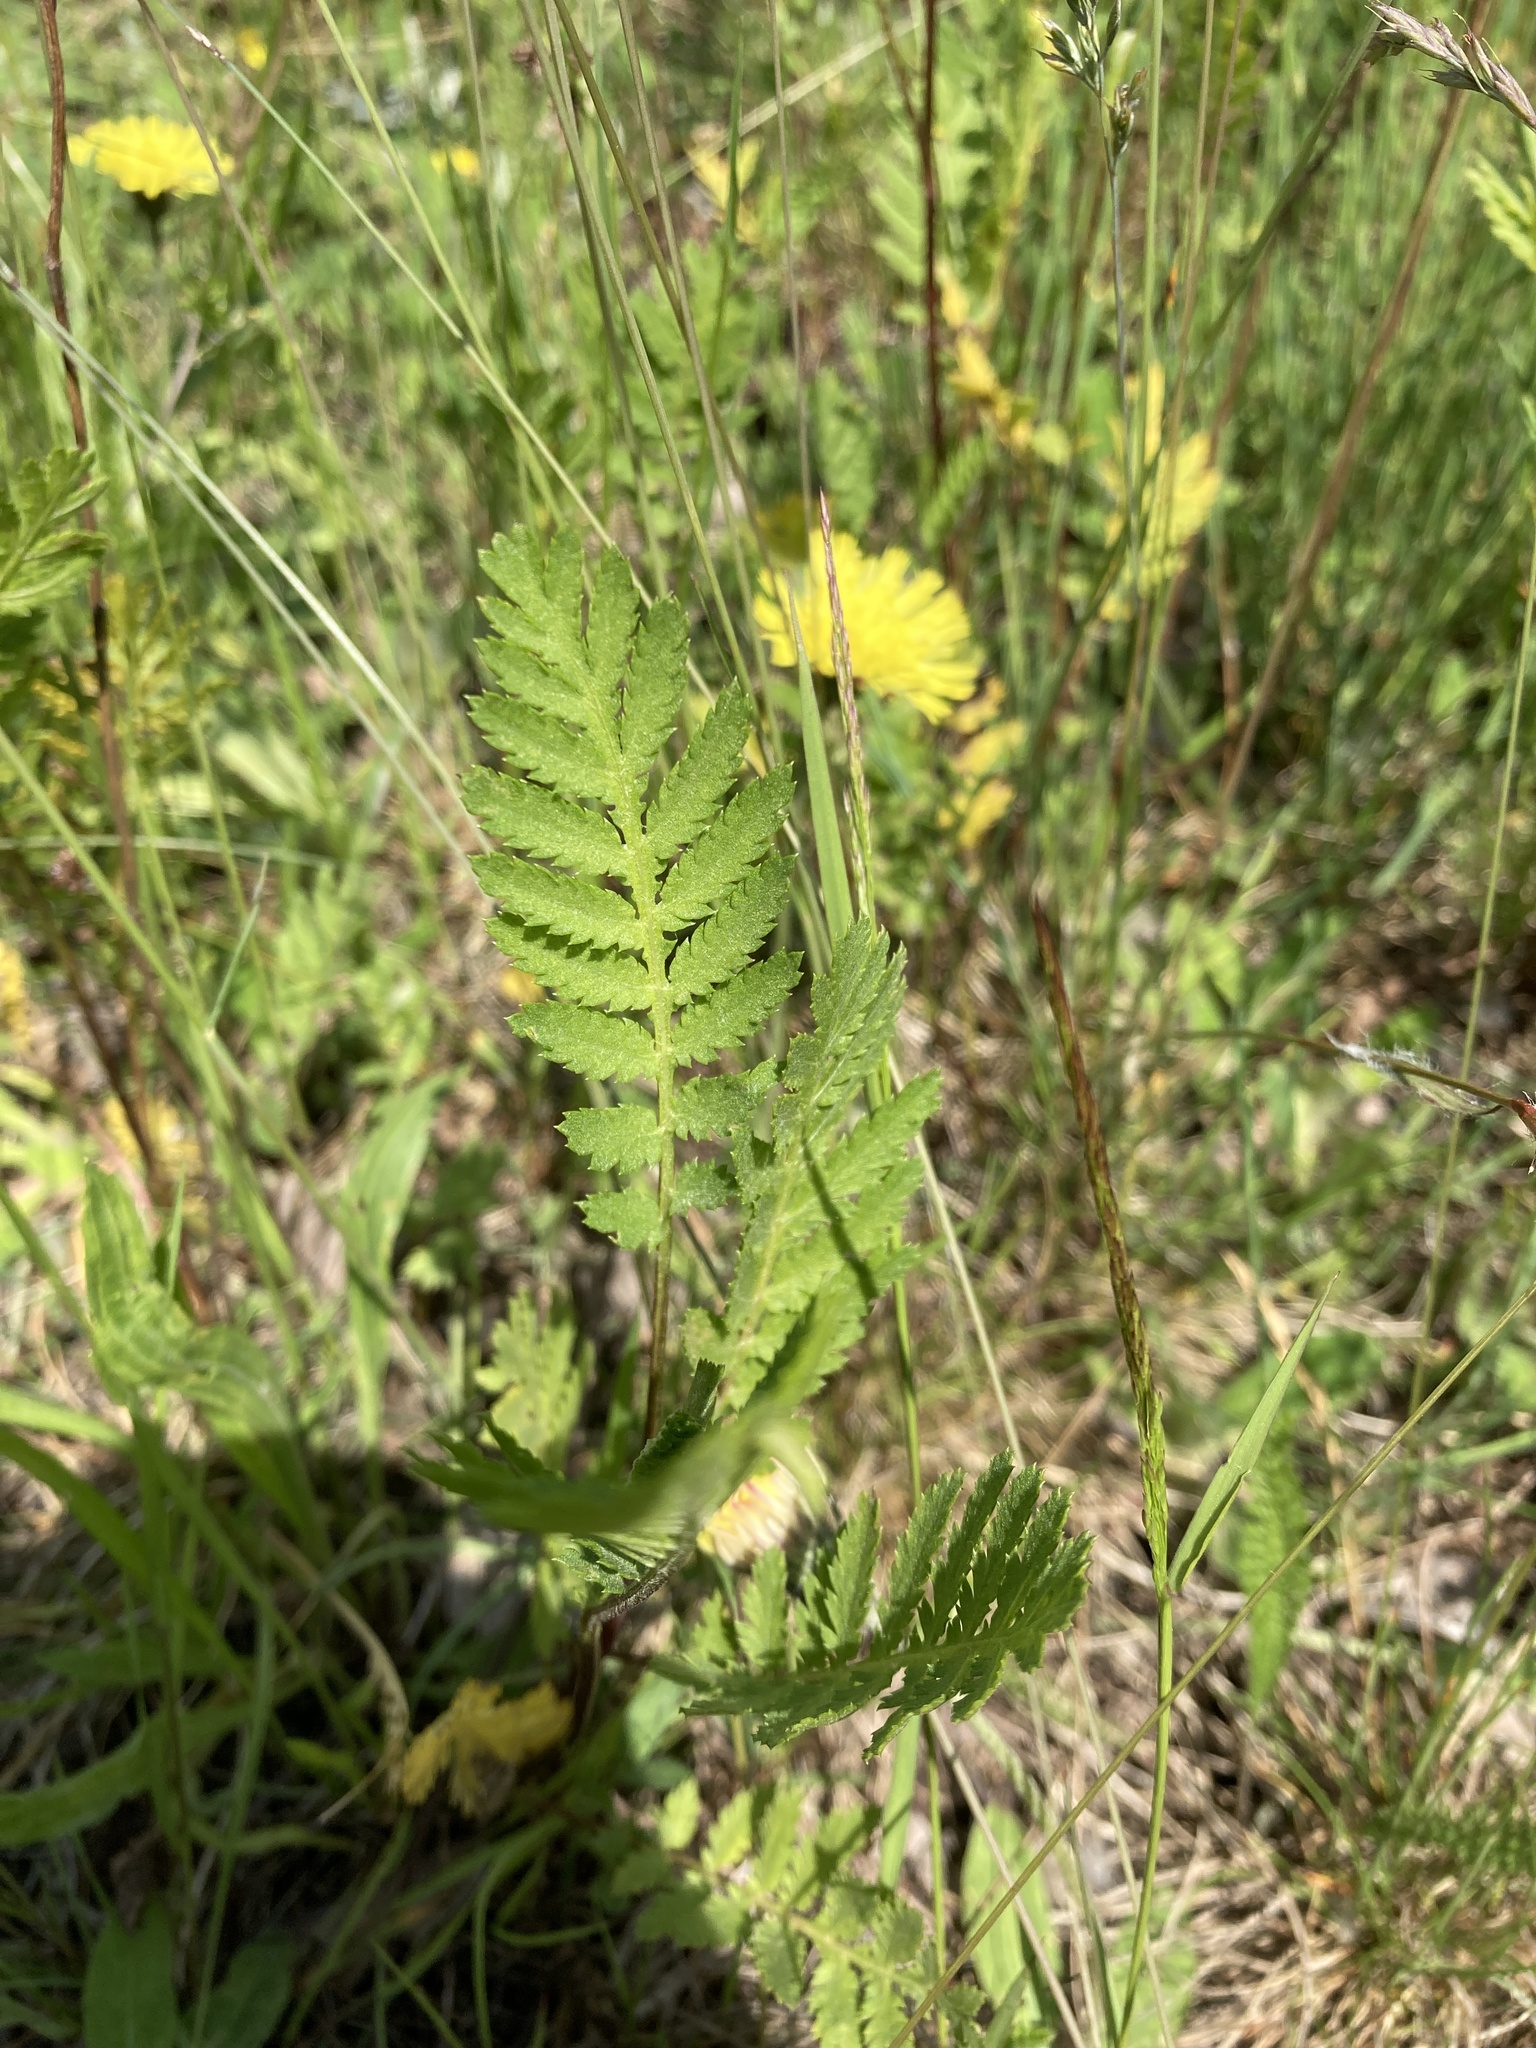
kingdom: Plantae
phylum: Tracheophyta
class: Magnoliopsida
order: Asterales
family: Asteraceae
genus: Tanacetum
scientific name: Tanacetum vulgare
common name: Common tansy
